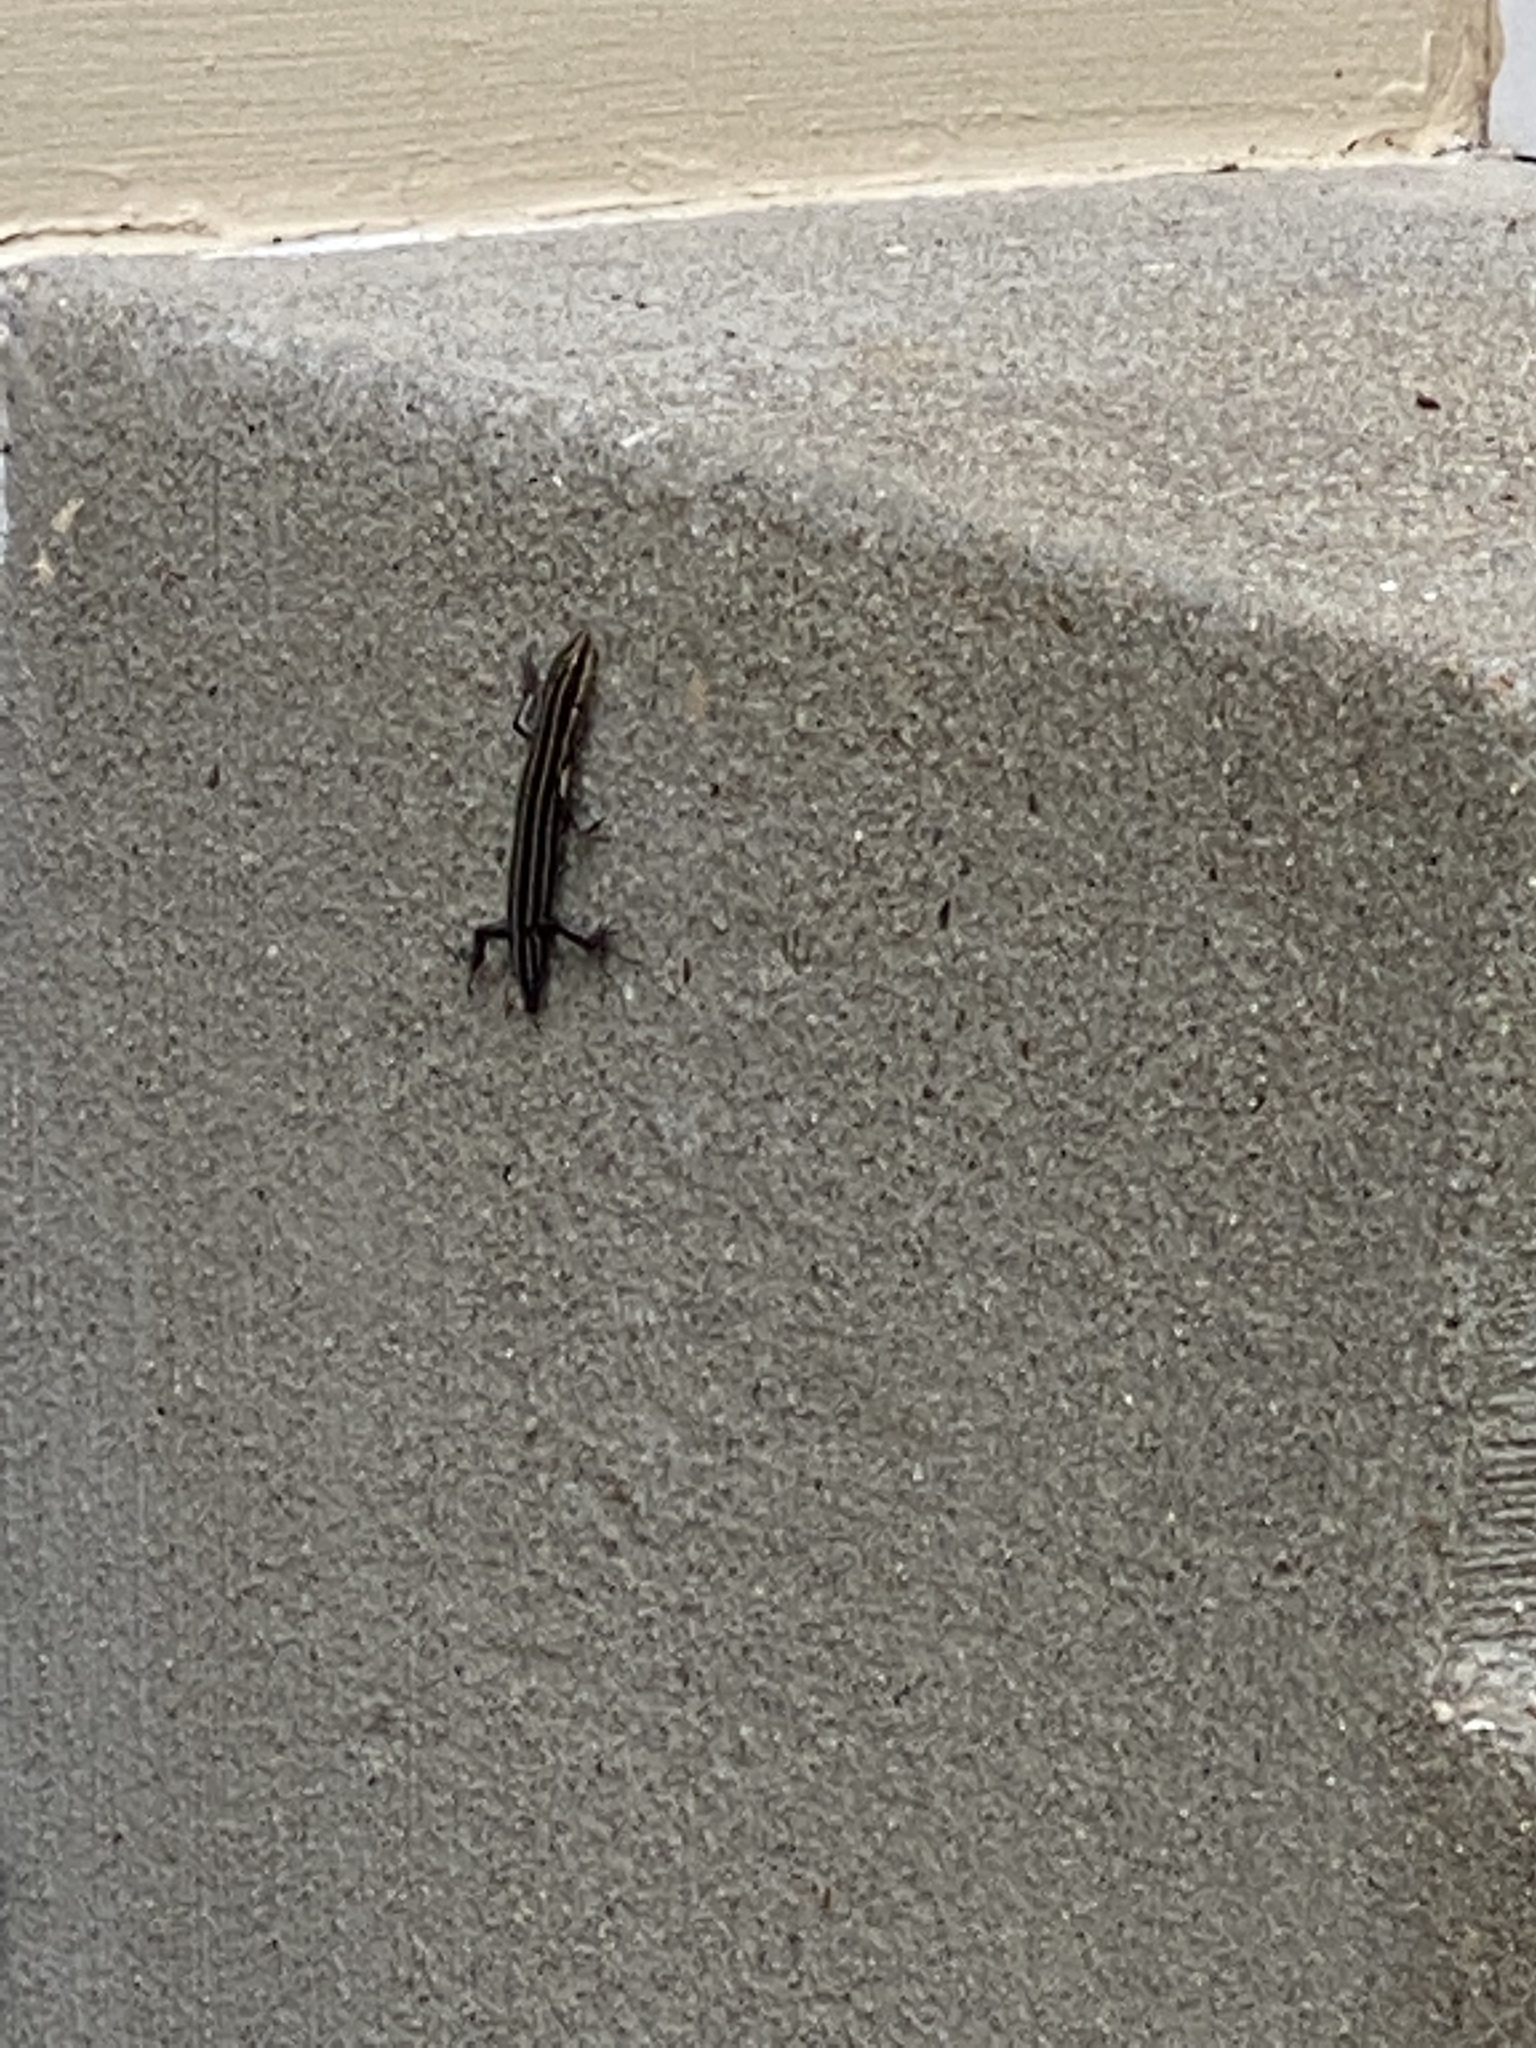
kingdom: Animalia
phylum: Chordata
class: Squamata
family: Scincidae
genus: Plestiodon
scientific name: Plestiodon fasciatus
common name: Five-lined skink
